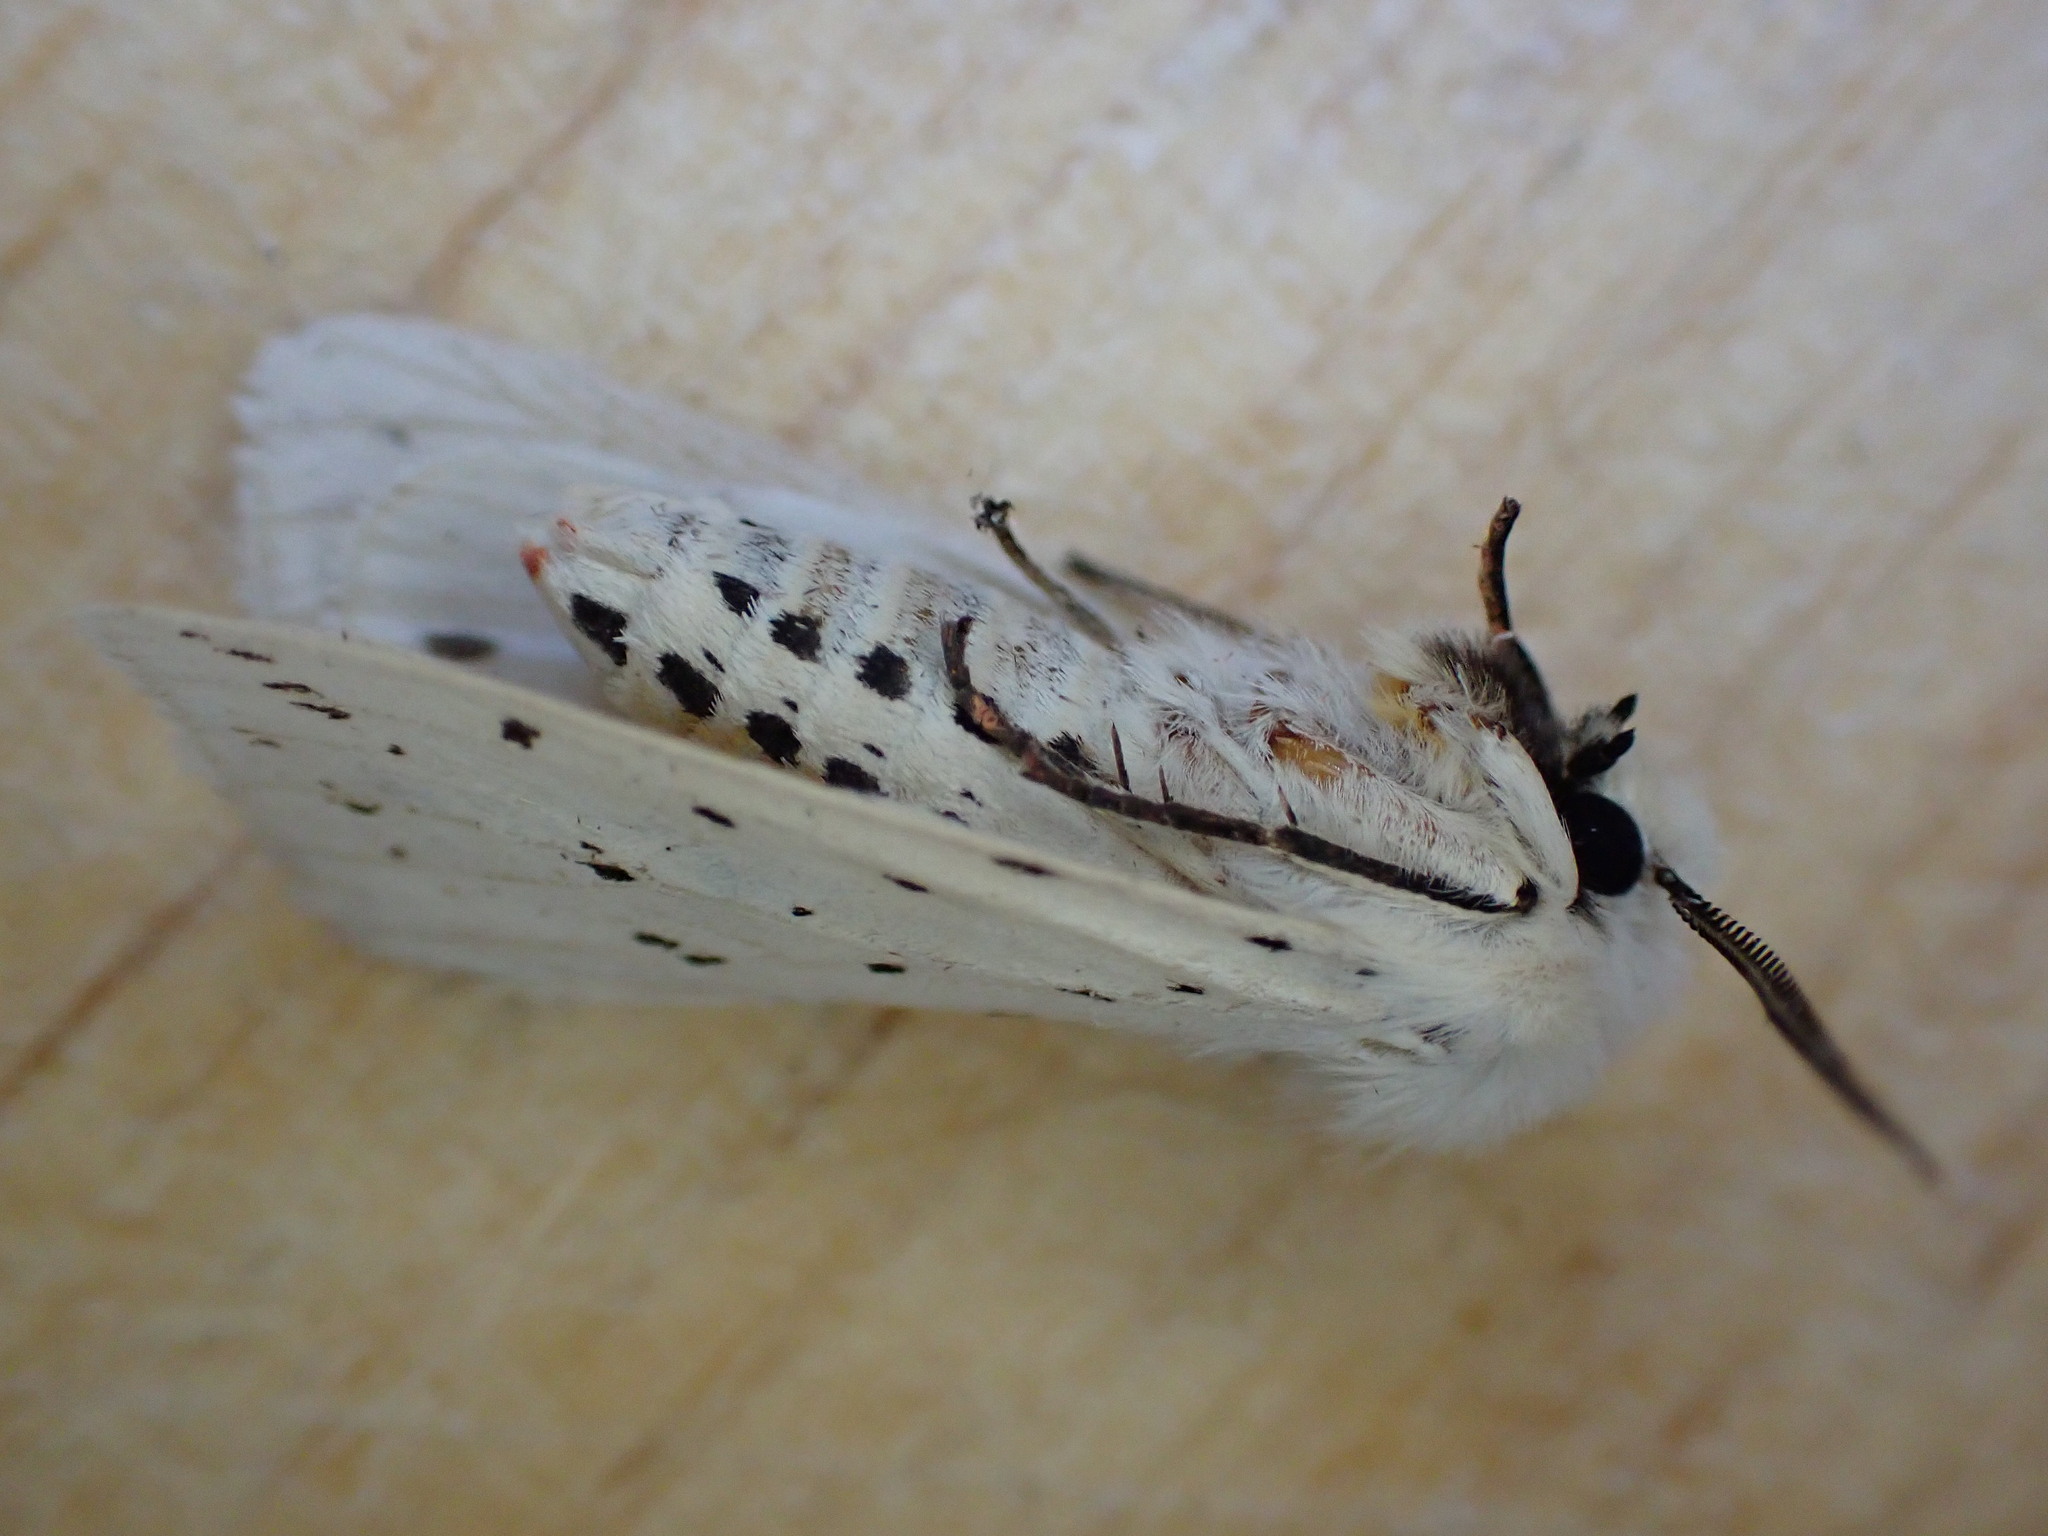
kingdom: Animalia
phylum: Arthropoda
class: Insecta
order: Lepidoptera
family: Erebidae
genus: Spilosoma
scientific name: Spilosoma lubricipeda
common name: White ermine
